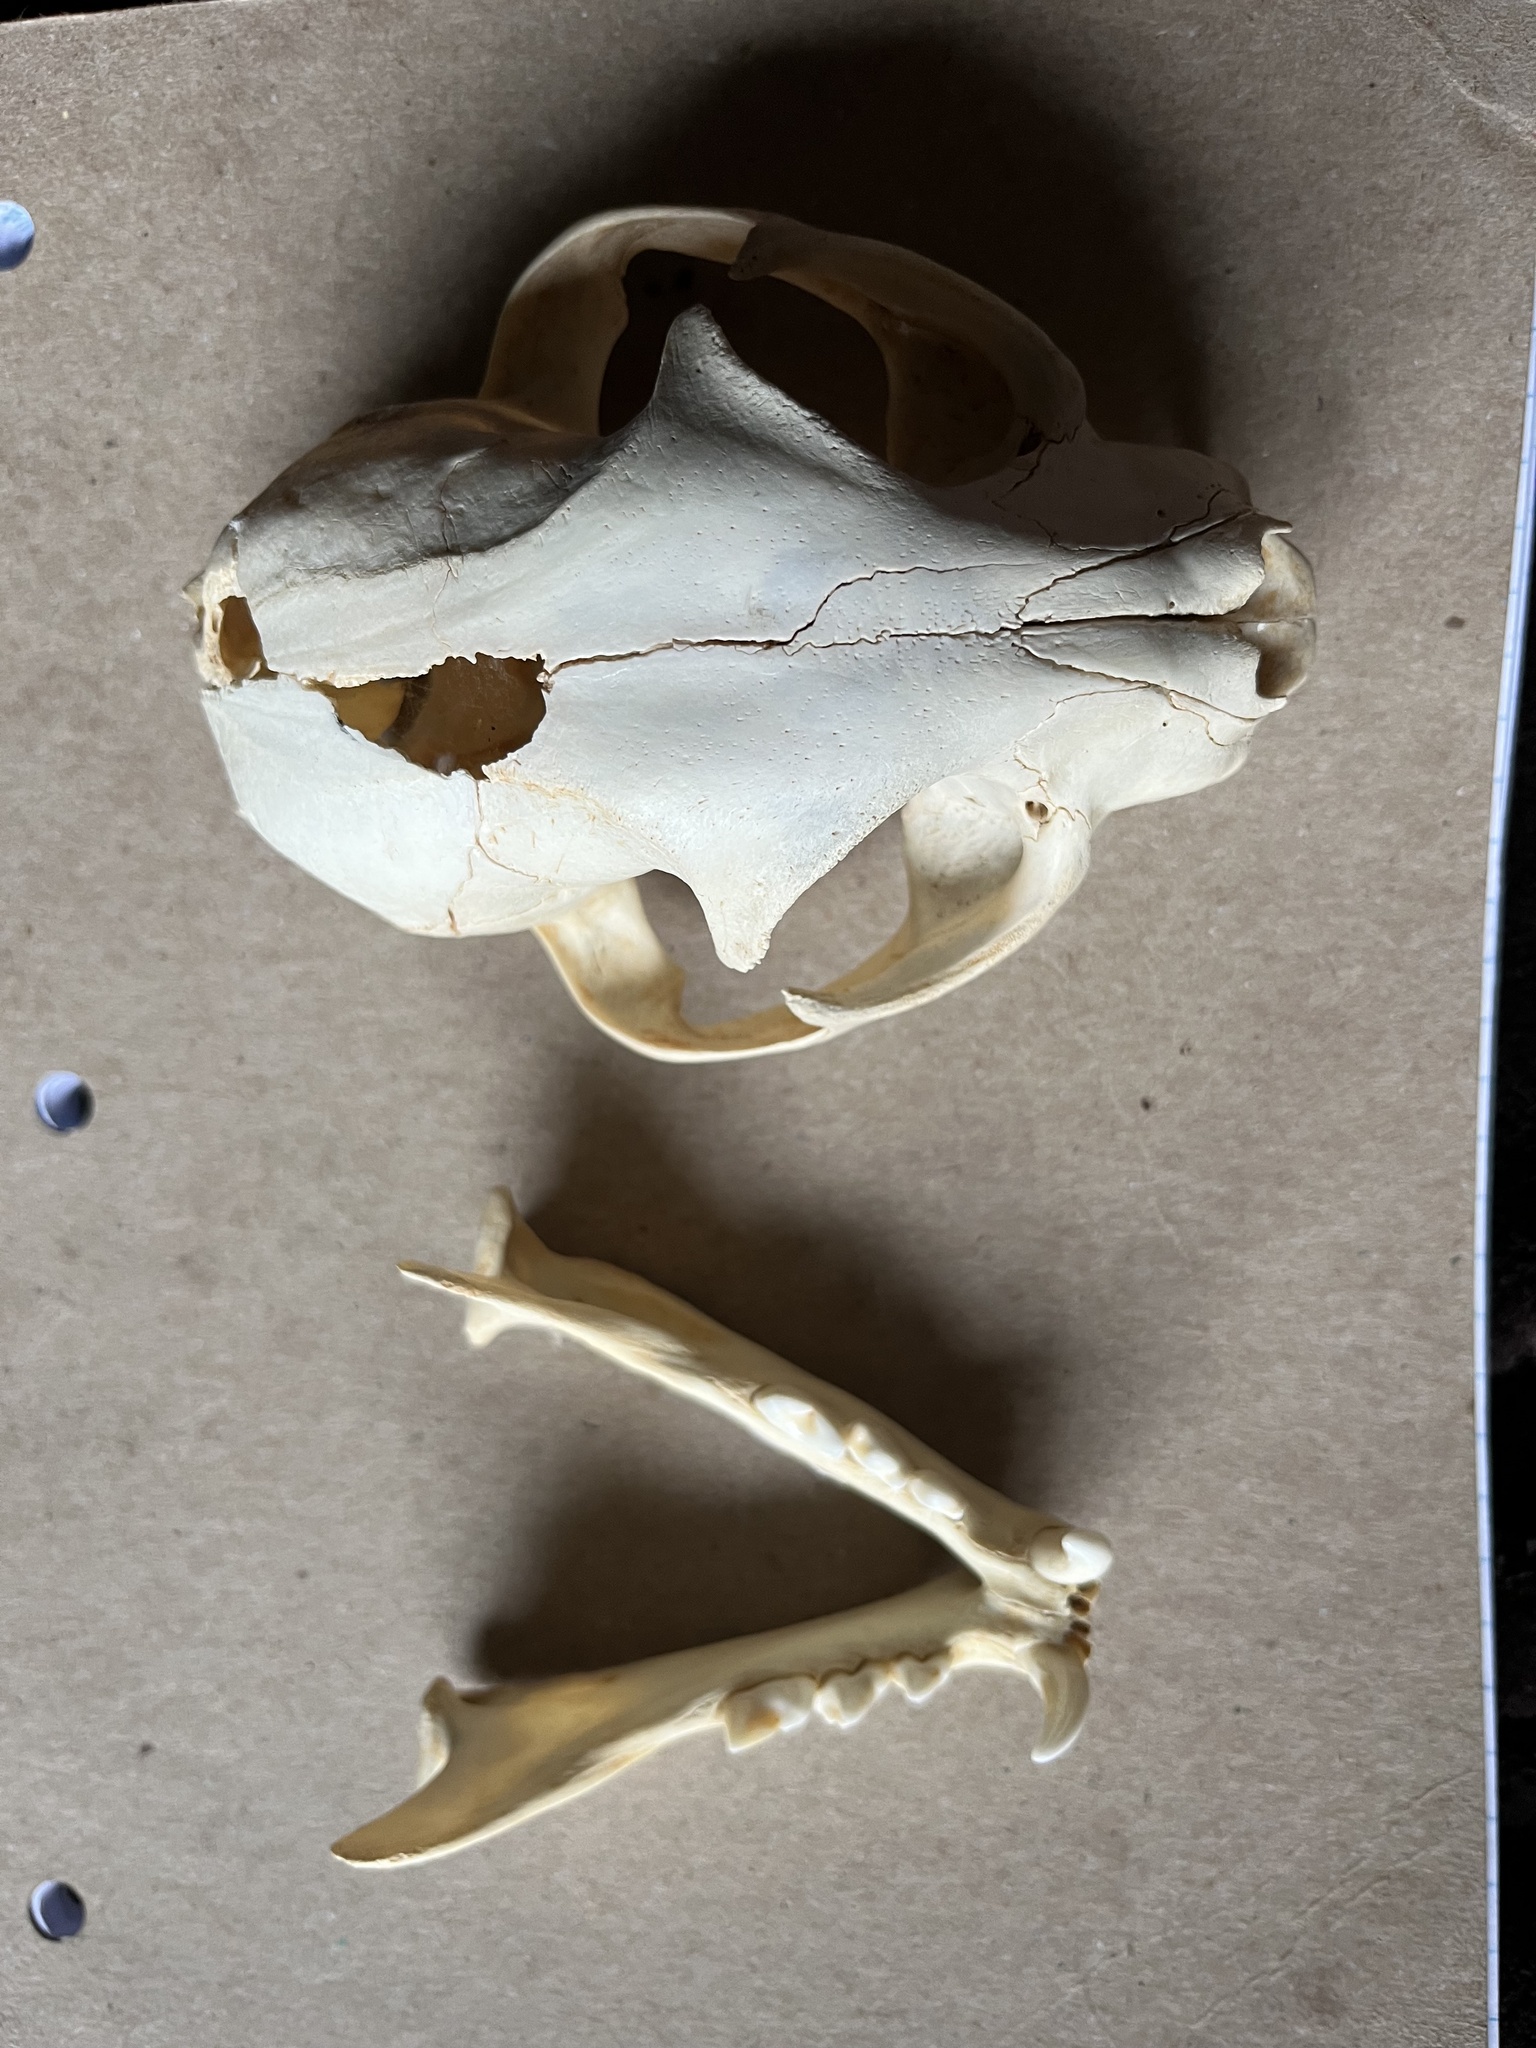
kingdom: Animalia
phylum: Chordata
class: Mammalia
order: Carnivora
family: Felidae
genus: Lynx
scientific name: Lynx rufus
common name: Bobcat
